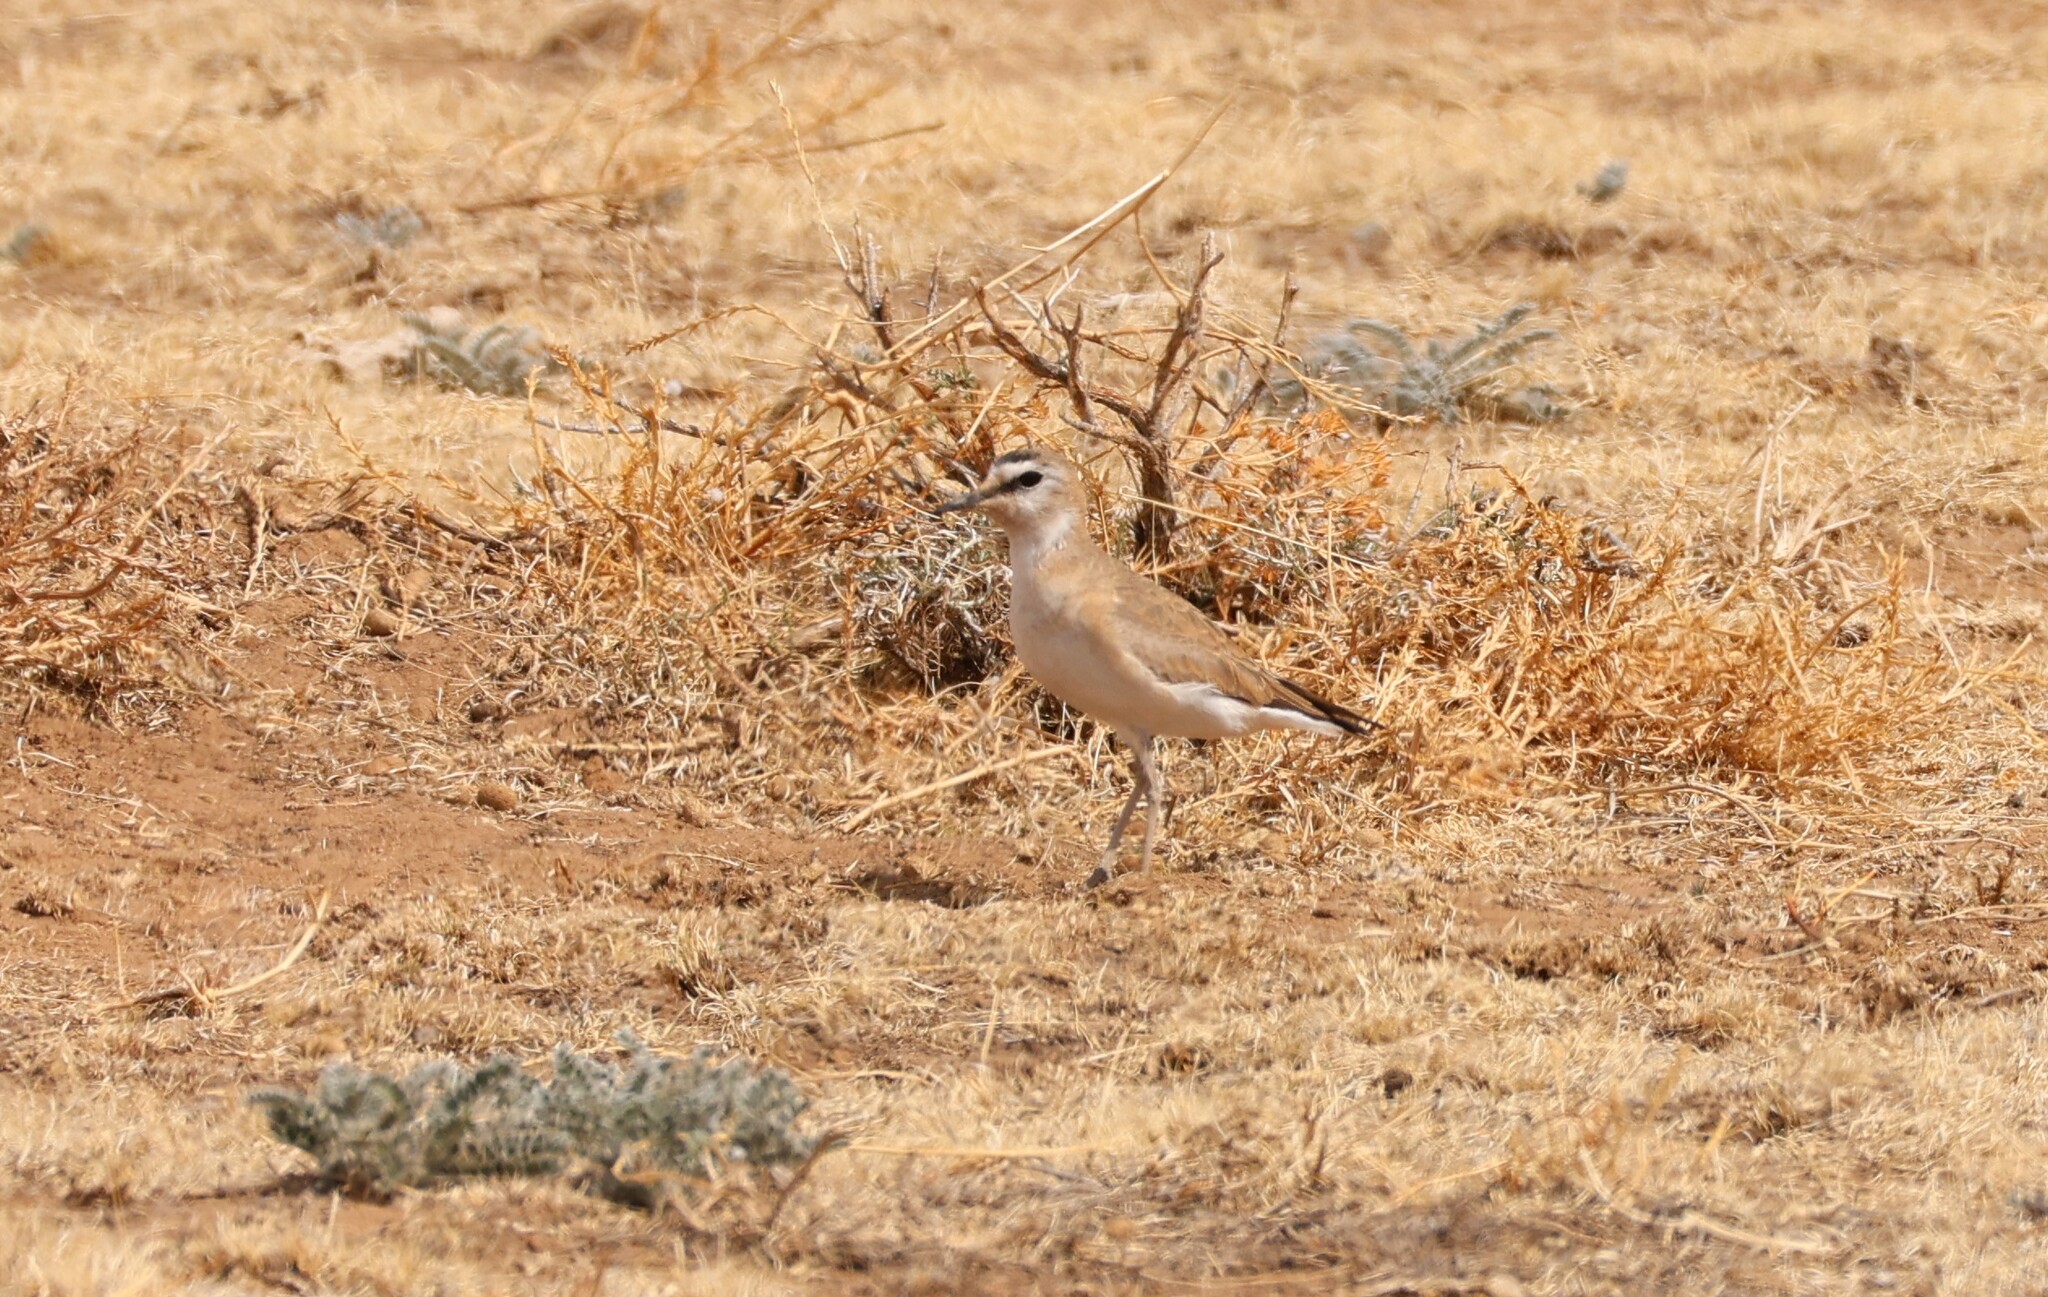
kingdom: Animalia
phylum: Chordata
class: Aves
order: Charadriiformes
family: Charadriidae
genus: Anarhynchus
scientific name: Anarhynchus
